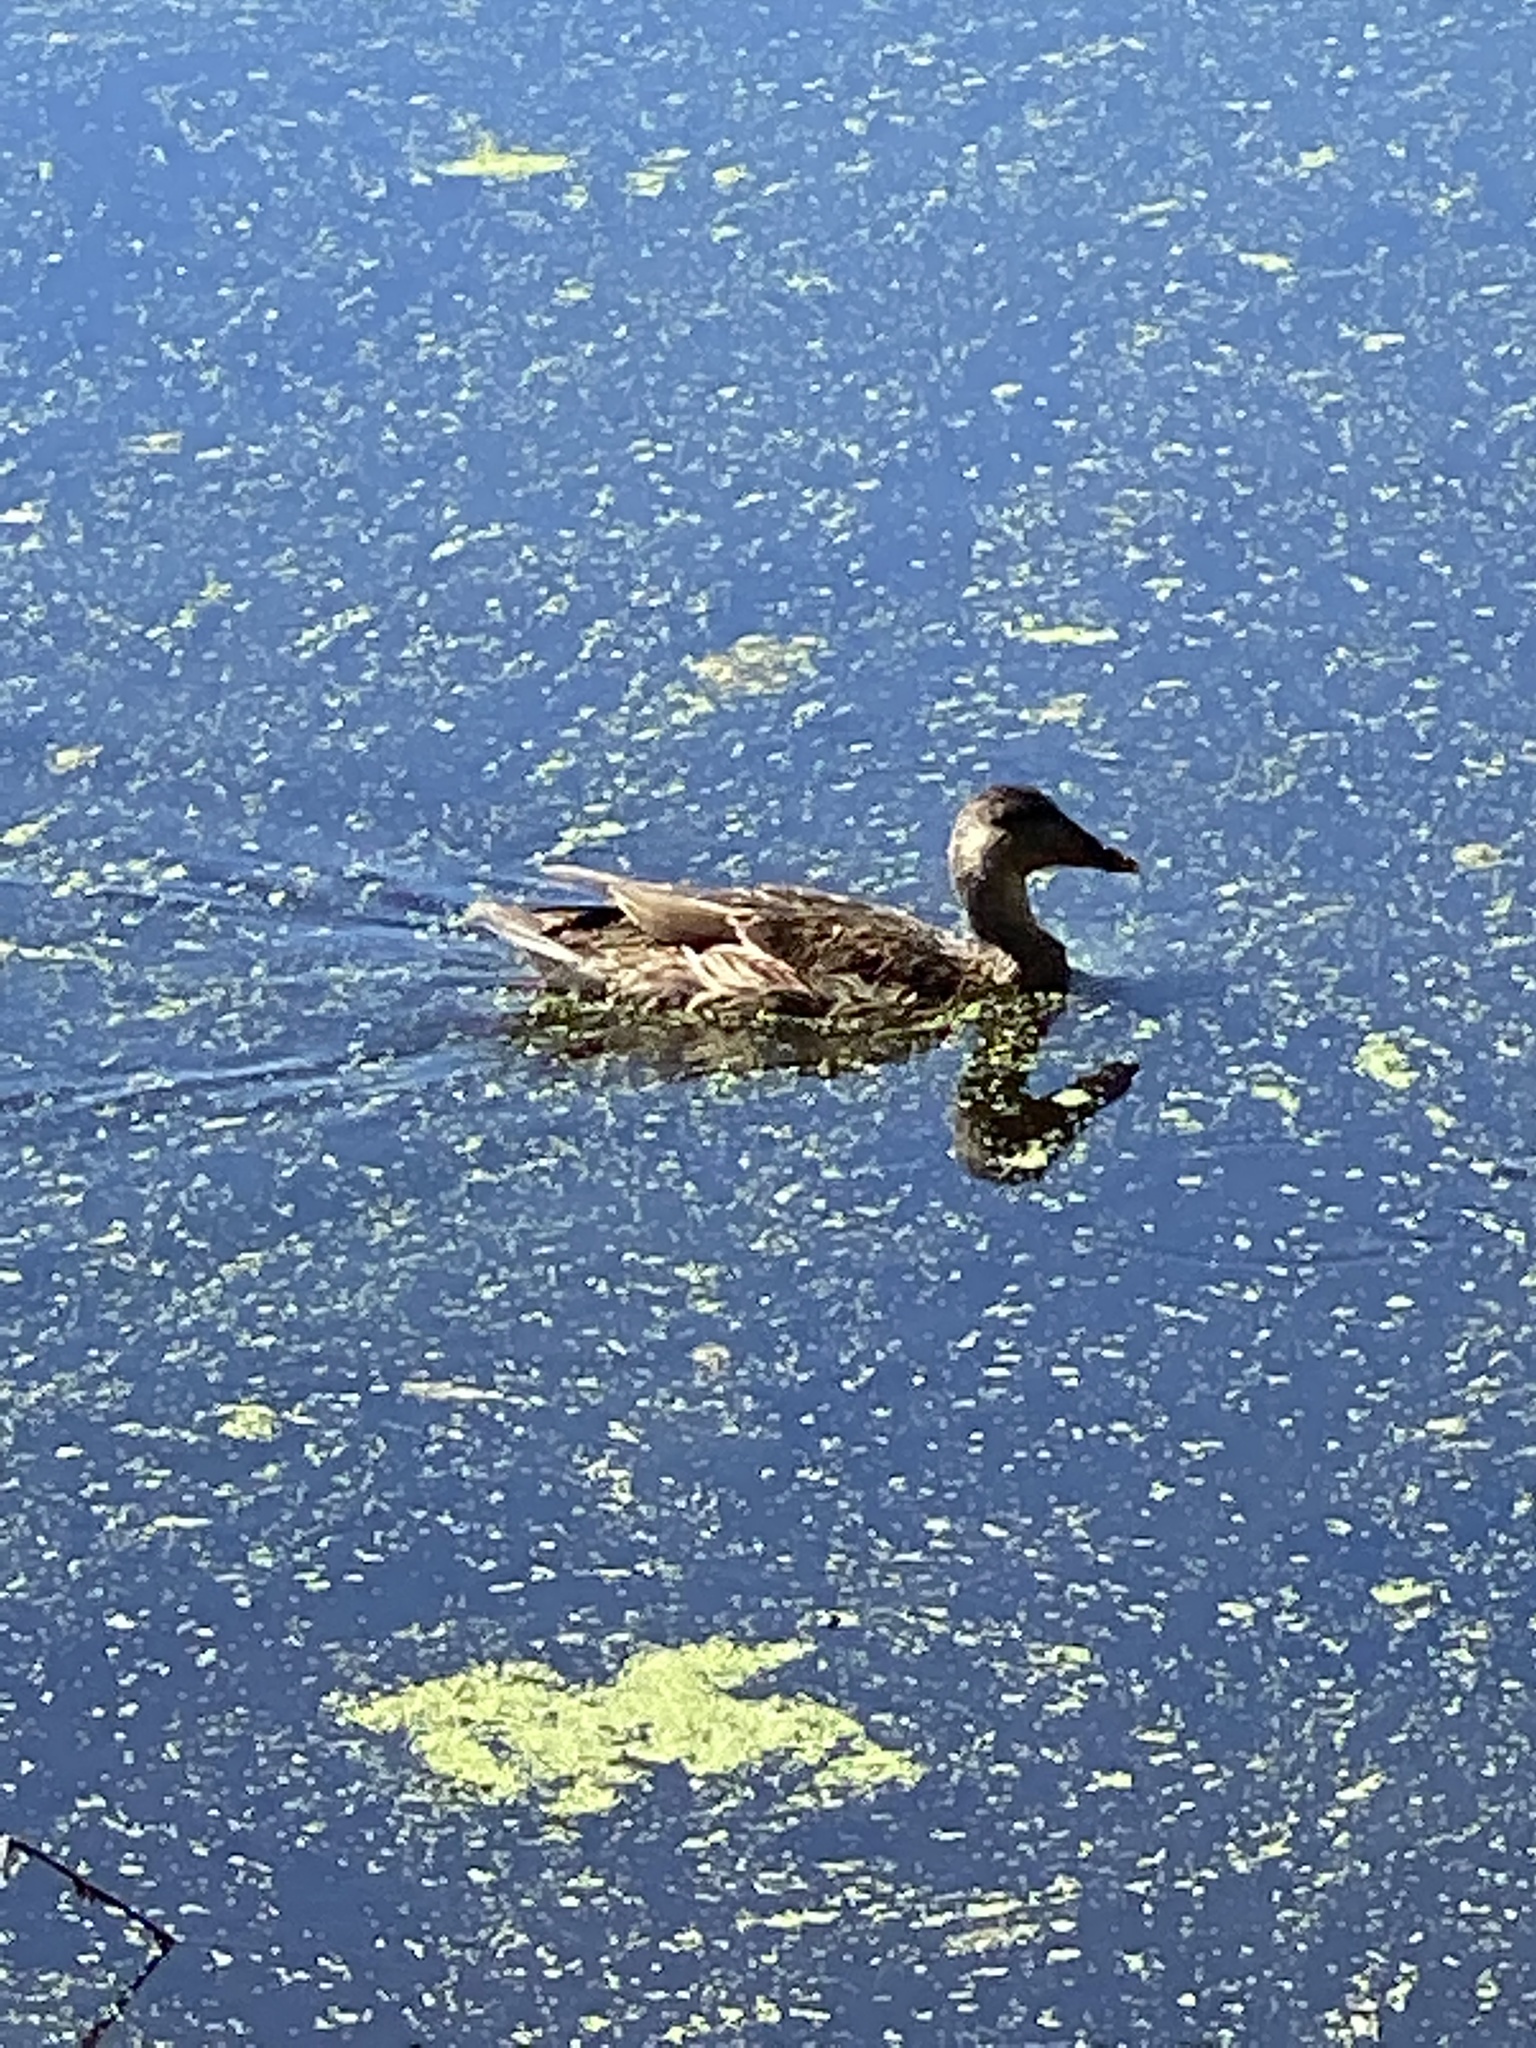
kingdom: Animalia
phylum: Chordata
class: Aves
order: Anseriformes
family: Anatidae
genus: Anas
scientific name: Anas platyrhynchos
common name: Mallard
